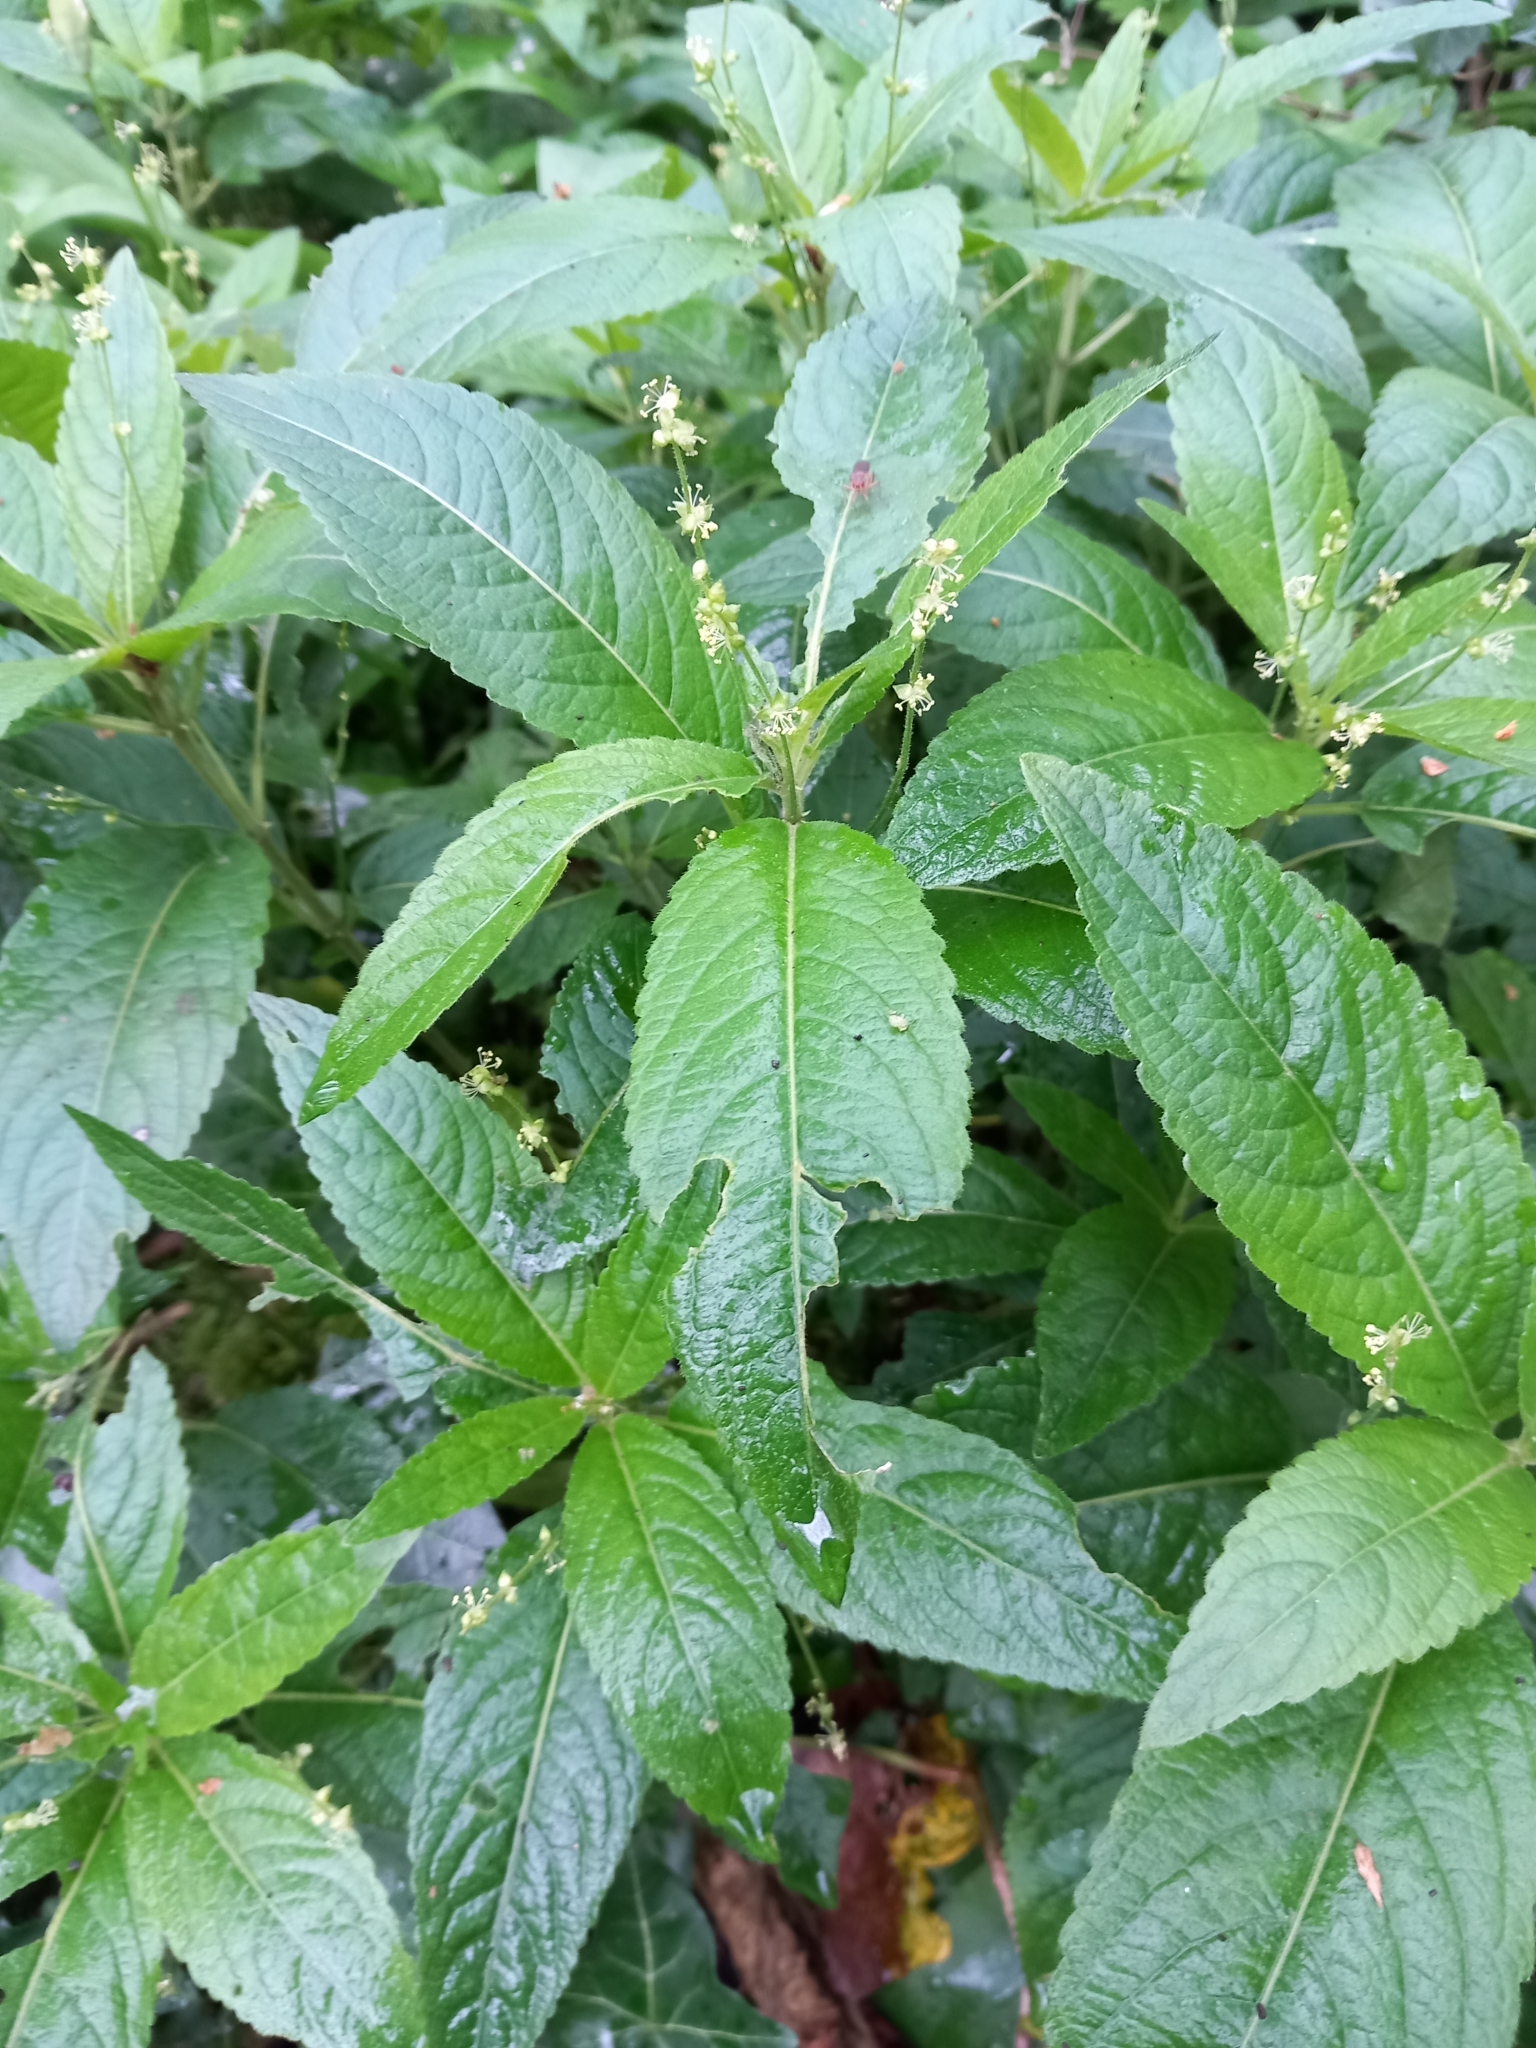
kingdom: Plantae
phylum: Tracheophyta
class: Magnoliopsida
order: Malpighiales
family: Euphorbiaceae
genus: Mercurialis
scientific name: Mercurialis perennis
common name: Dog mercury
